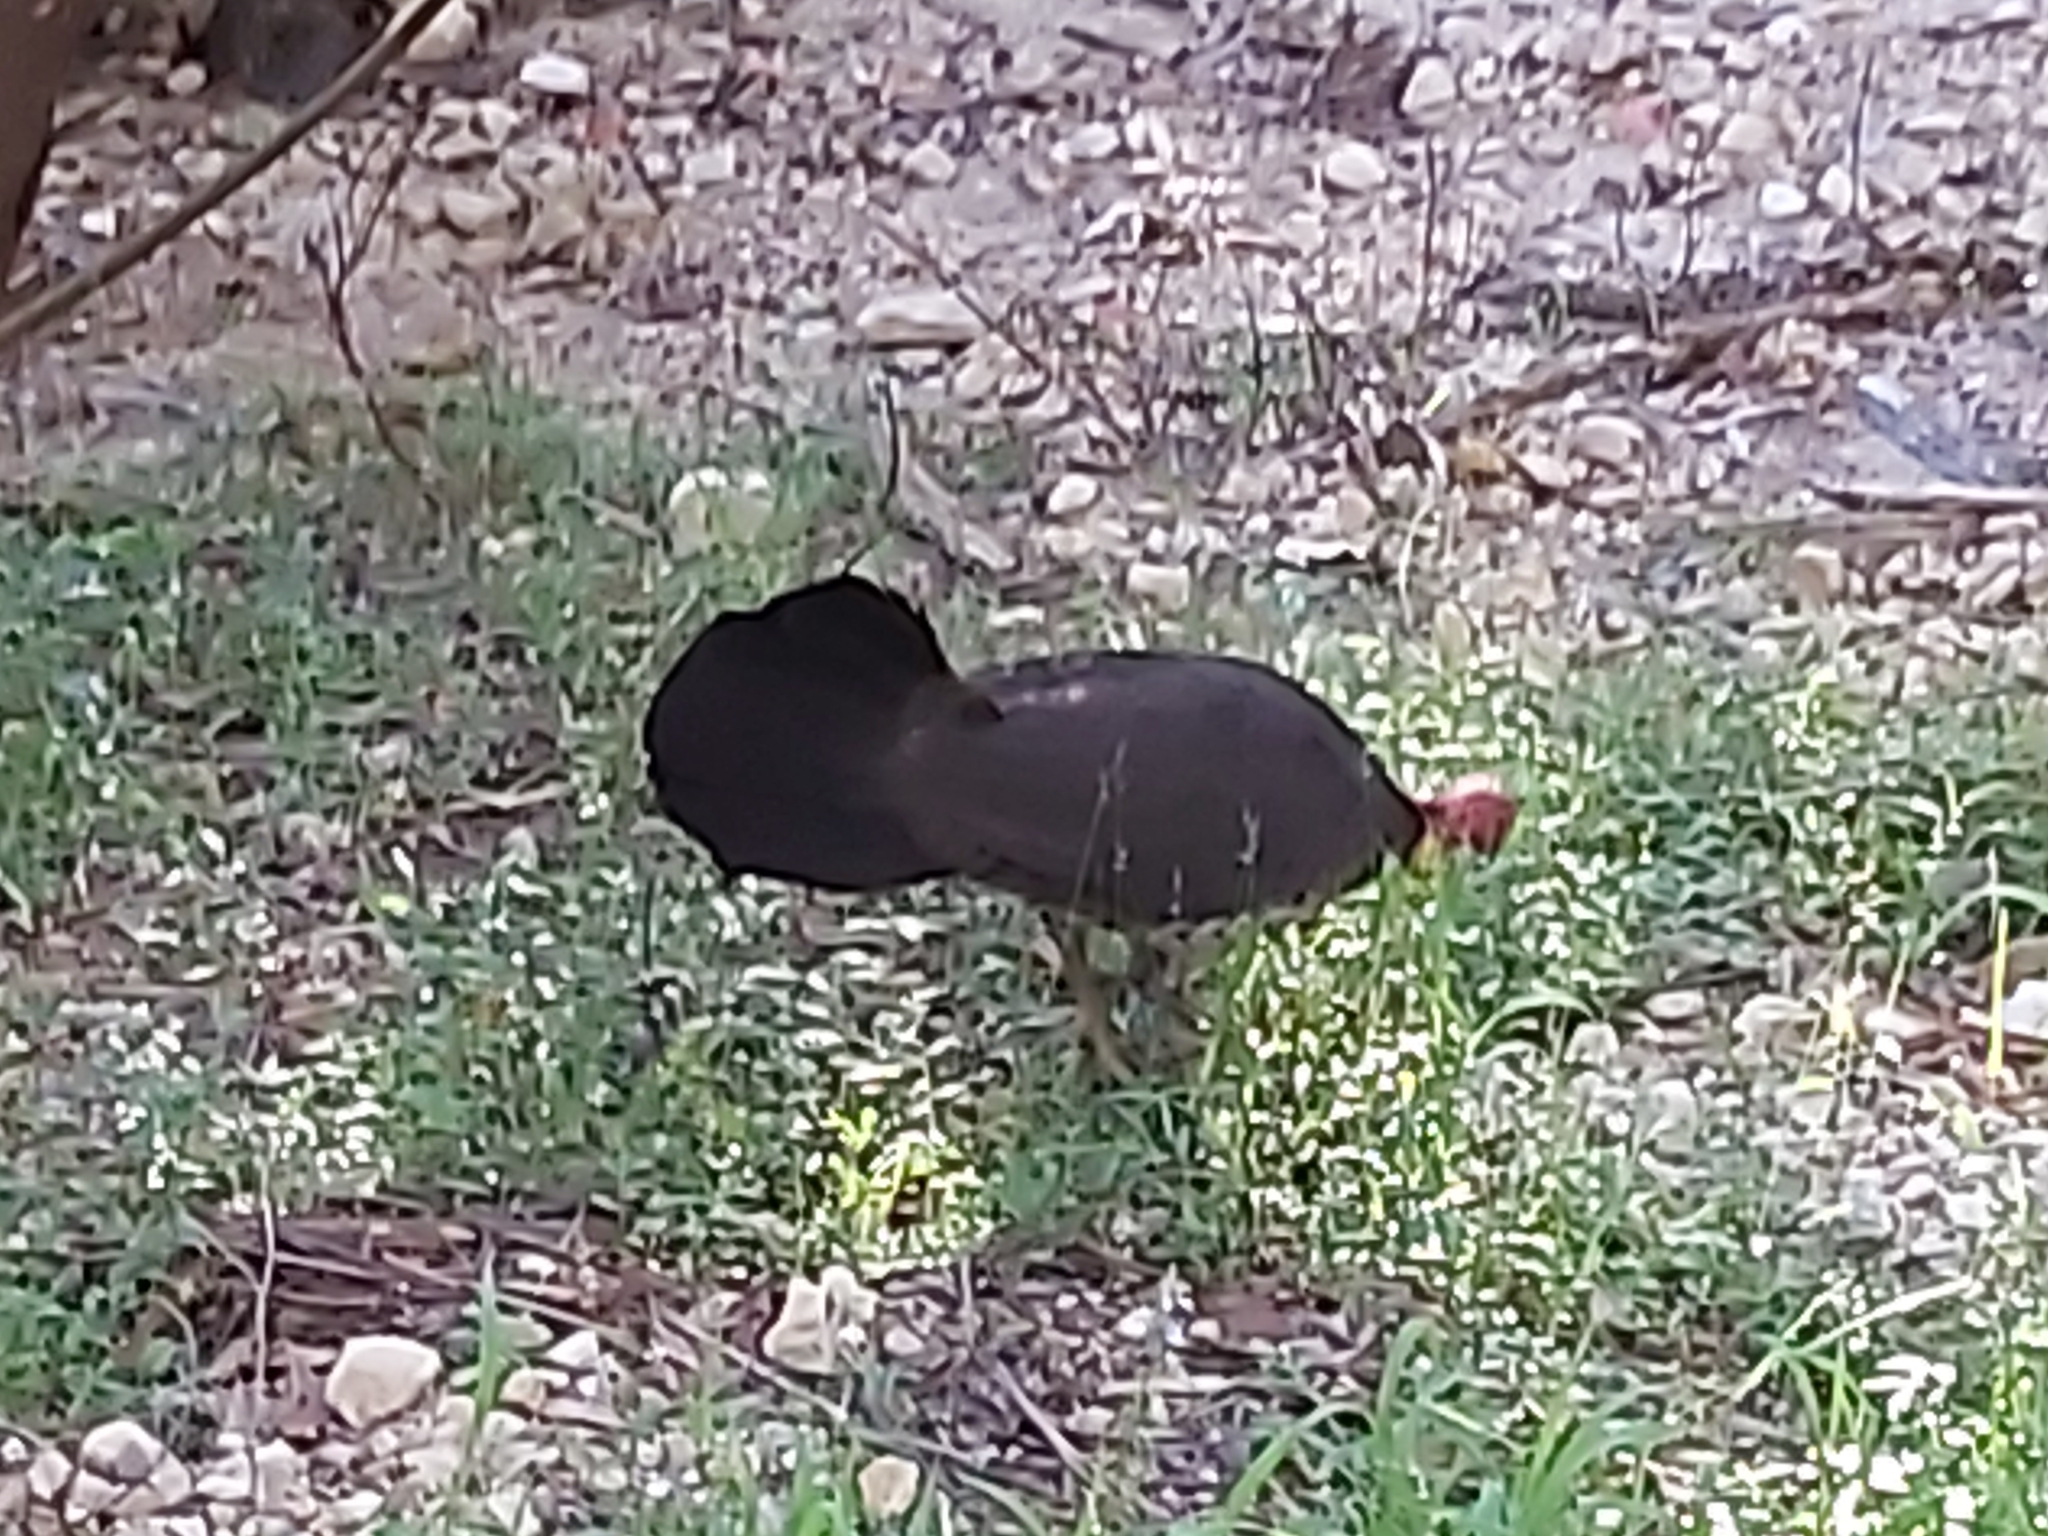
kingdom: Animalia
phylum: Chordata
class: Aves
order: Galliformes
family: Megapodiidae
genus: Alectura
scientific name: Alectura lathami
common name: Australian brushturkey
